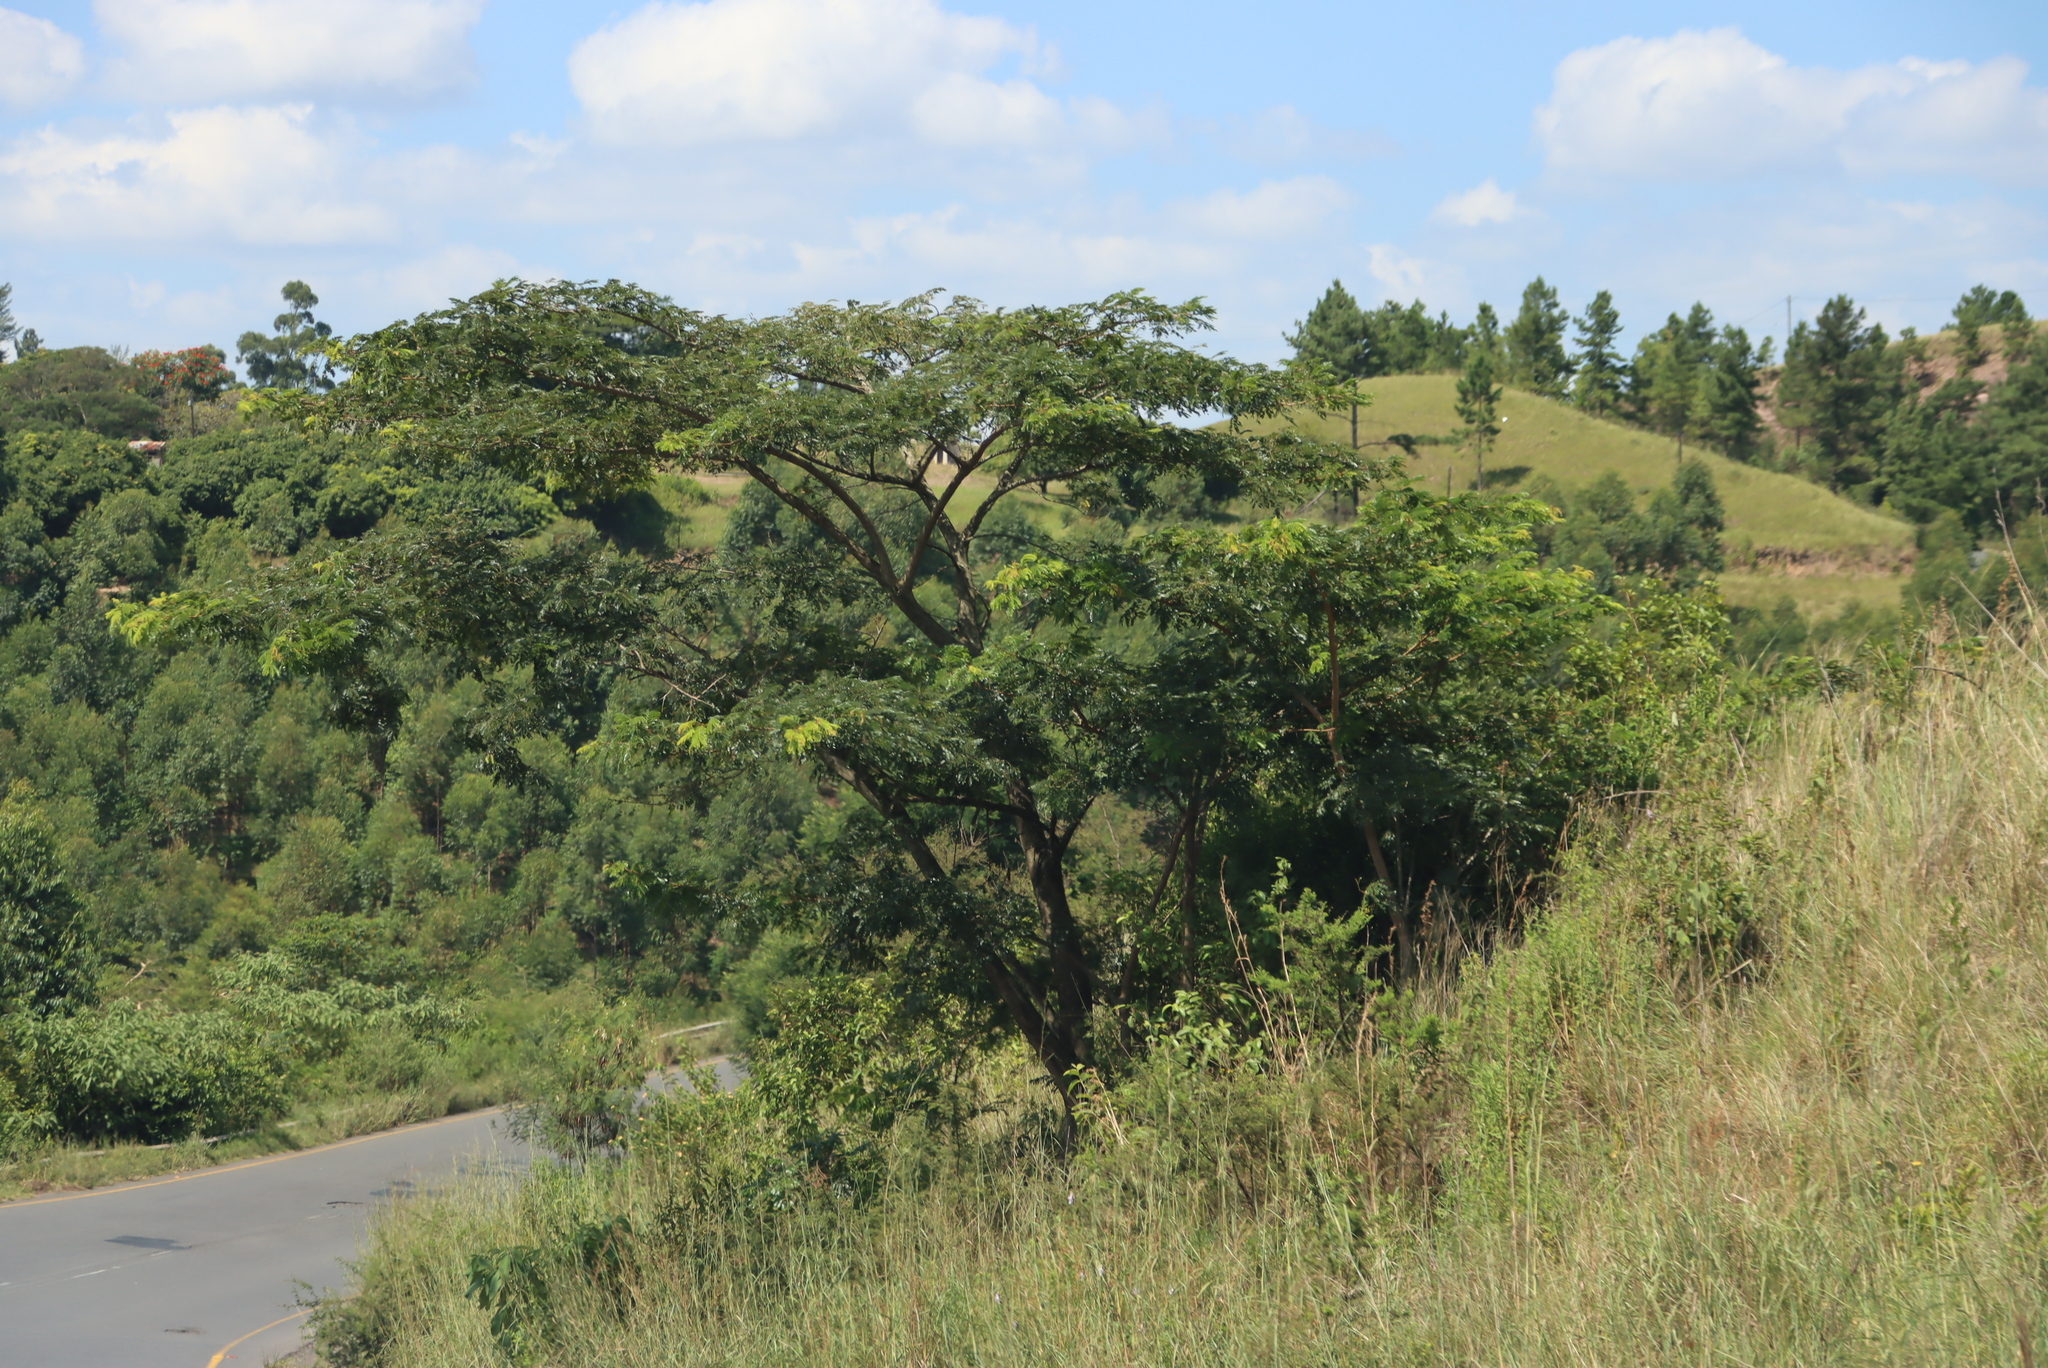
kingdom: Plantae
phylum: Tracheophyta
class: Magnoliopsida
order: Fabales
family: Fabaceae
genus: Albizia
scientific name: Albizia adianthifolia
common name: West african albizia
